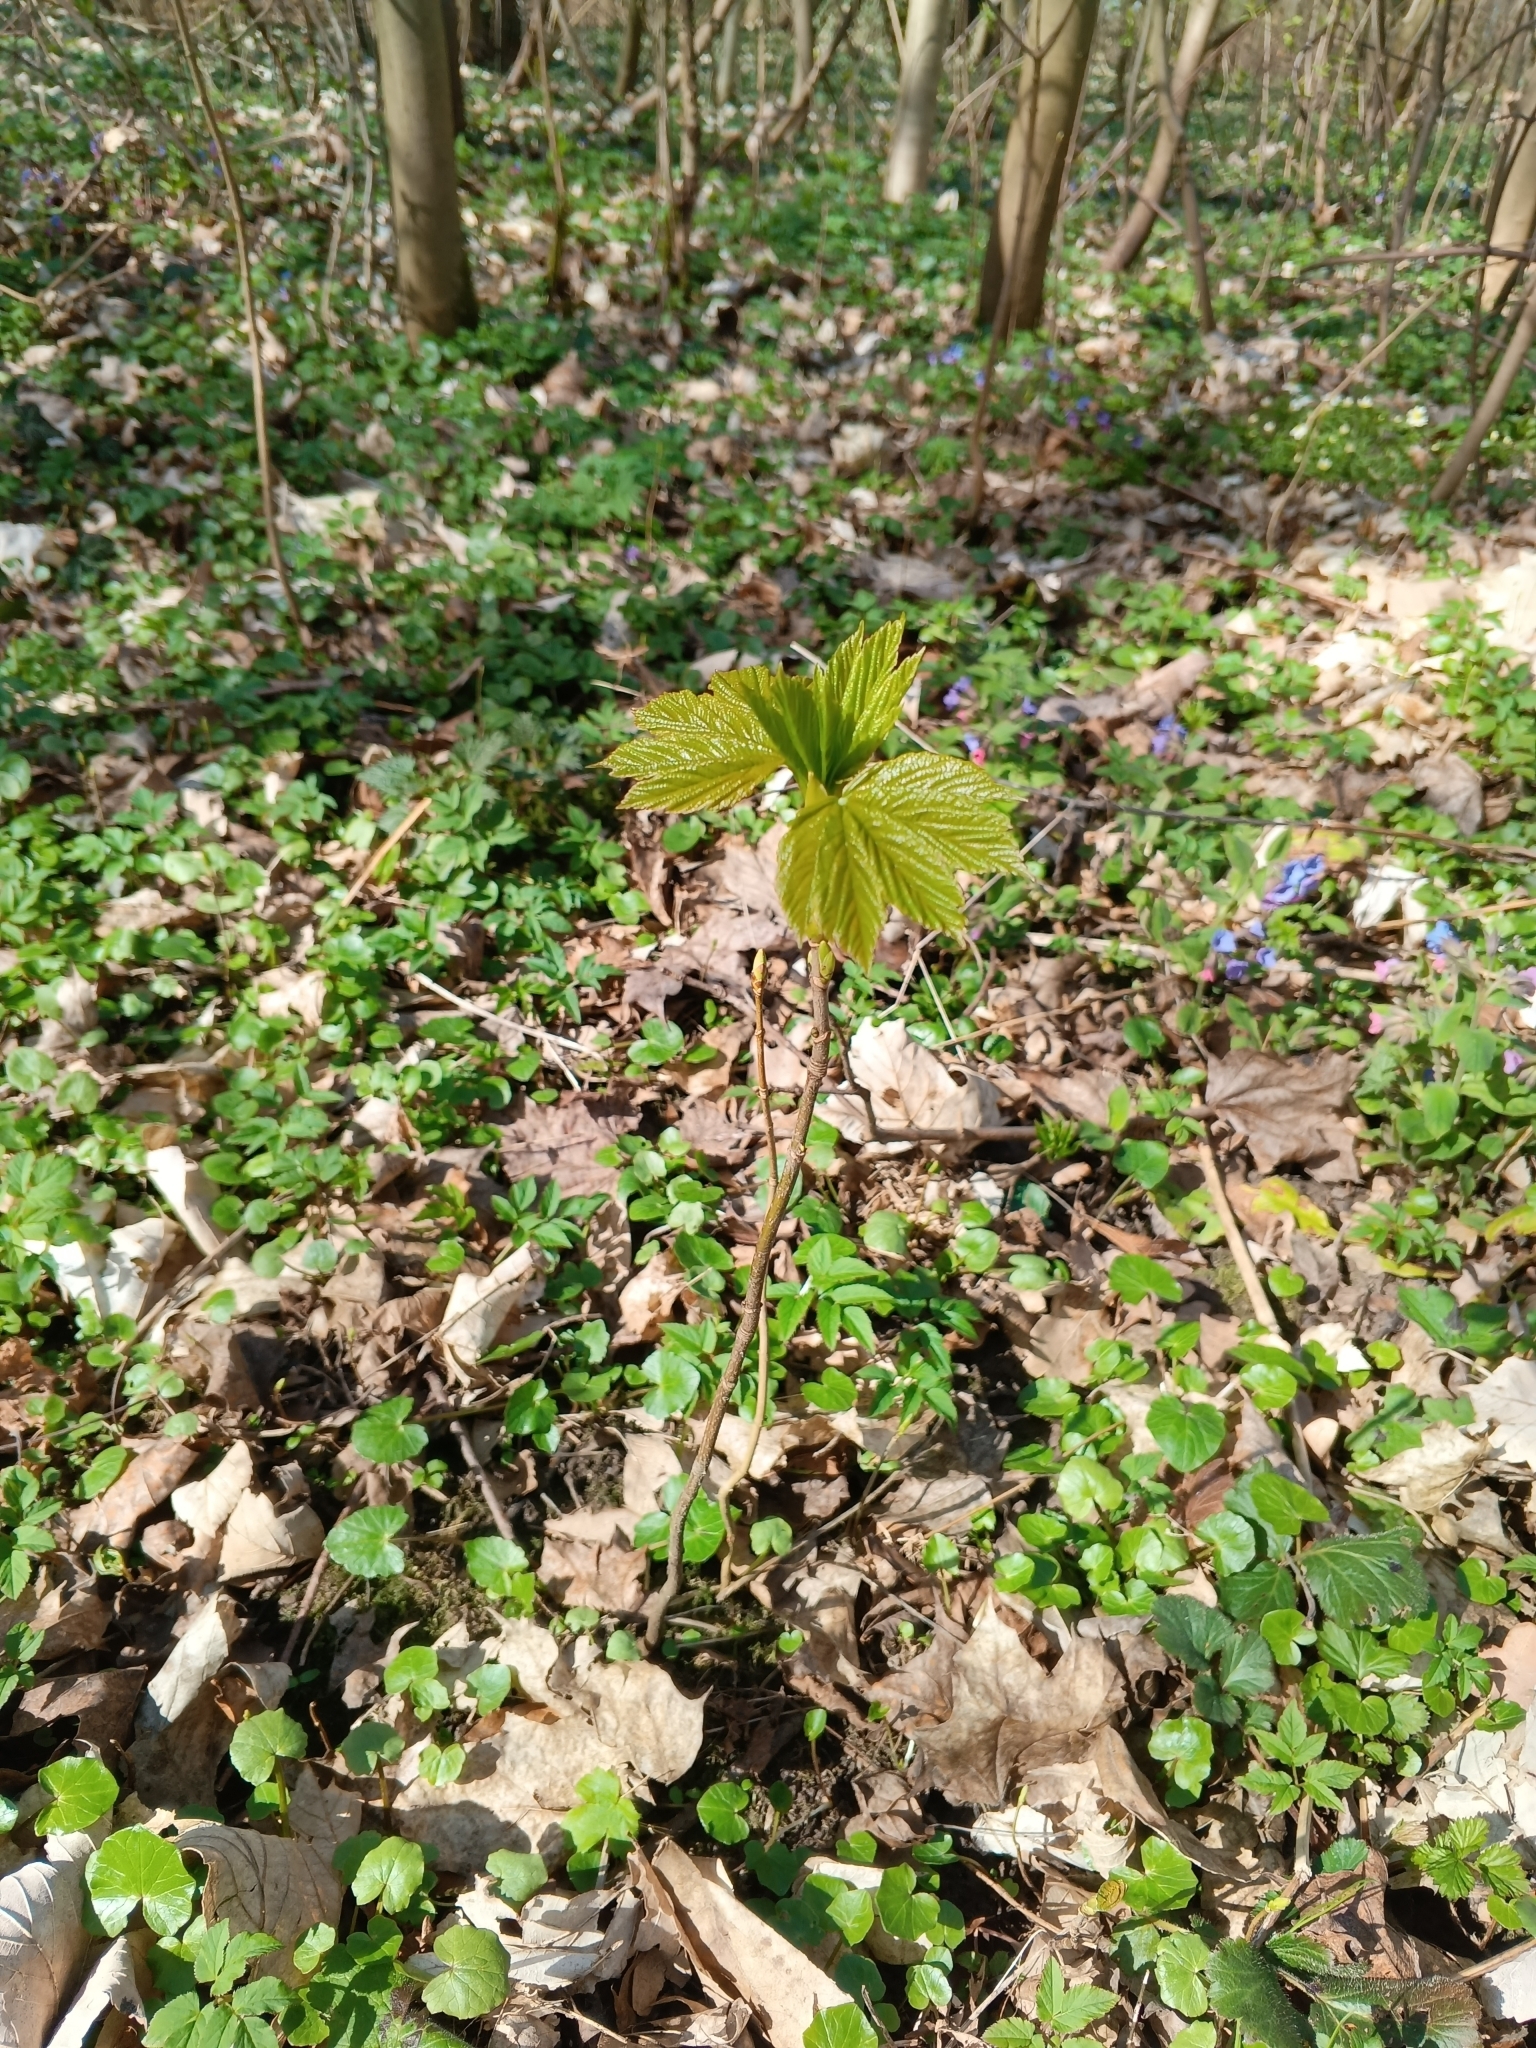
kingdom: Plantae
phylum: Tracheophyta
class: Magnoliopsida
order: Sapindales
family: Sapindaceae
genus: Acer
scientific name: Acer pseudoplatanus
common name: Sycamore
